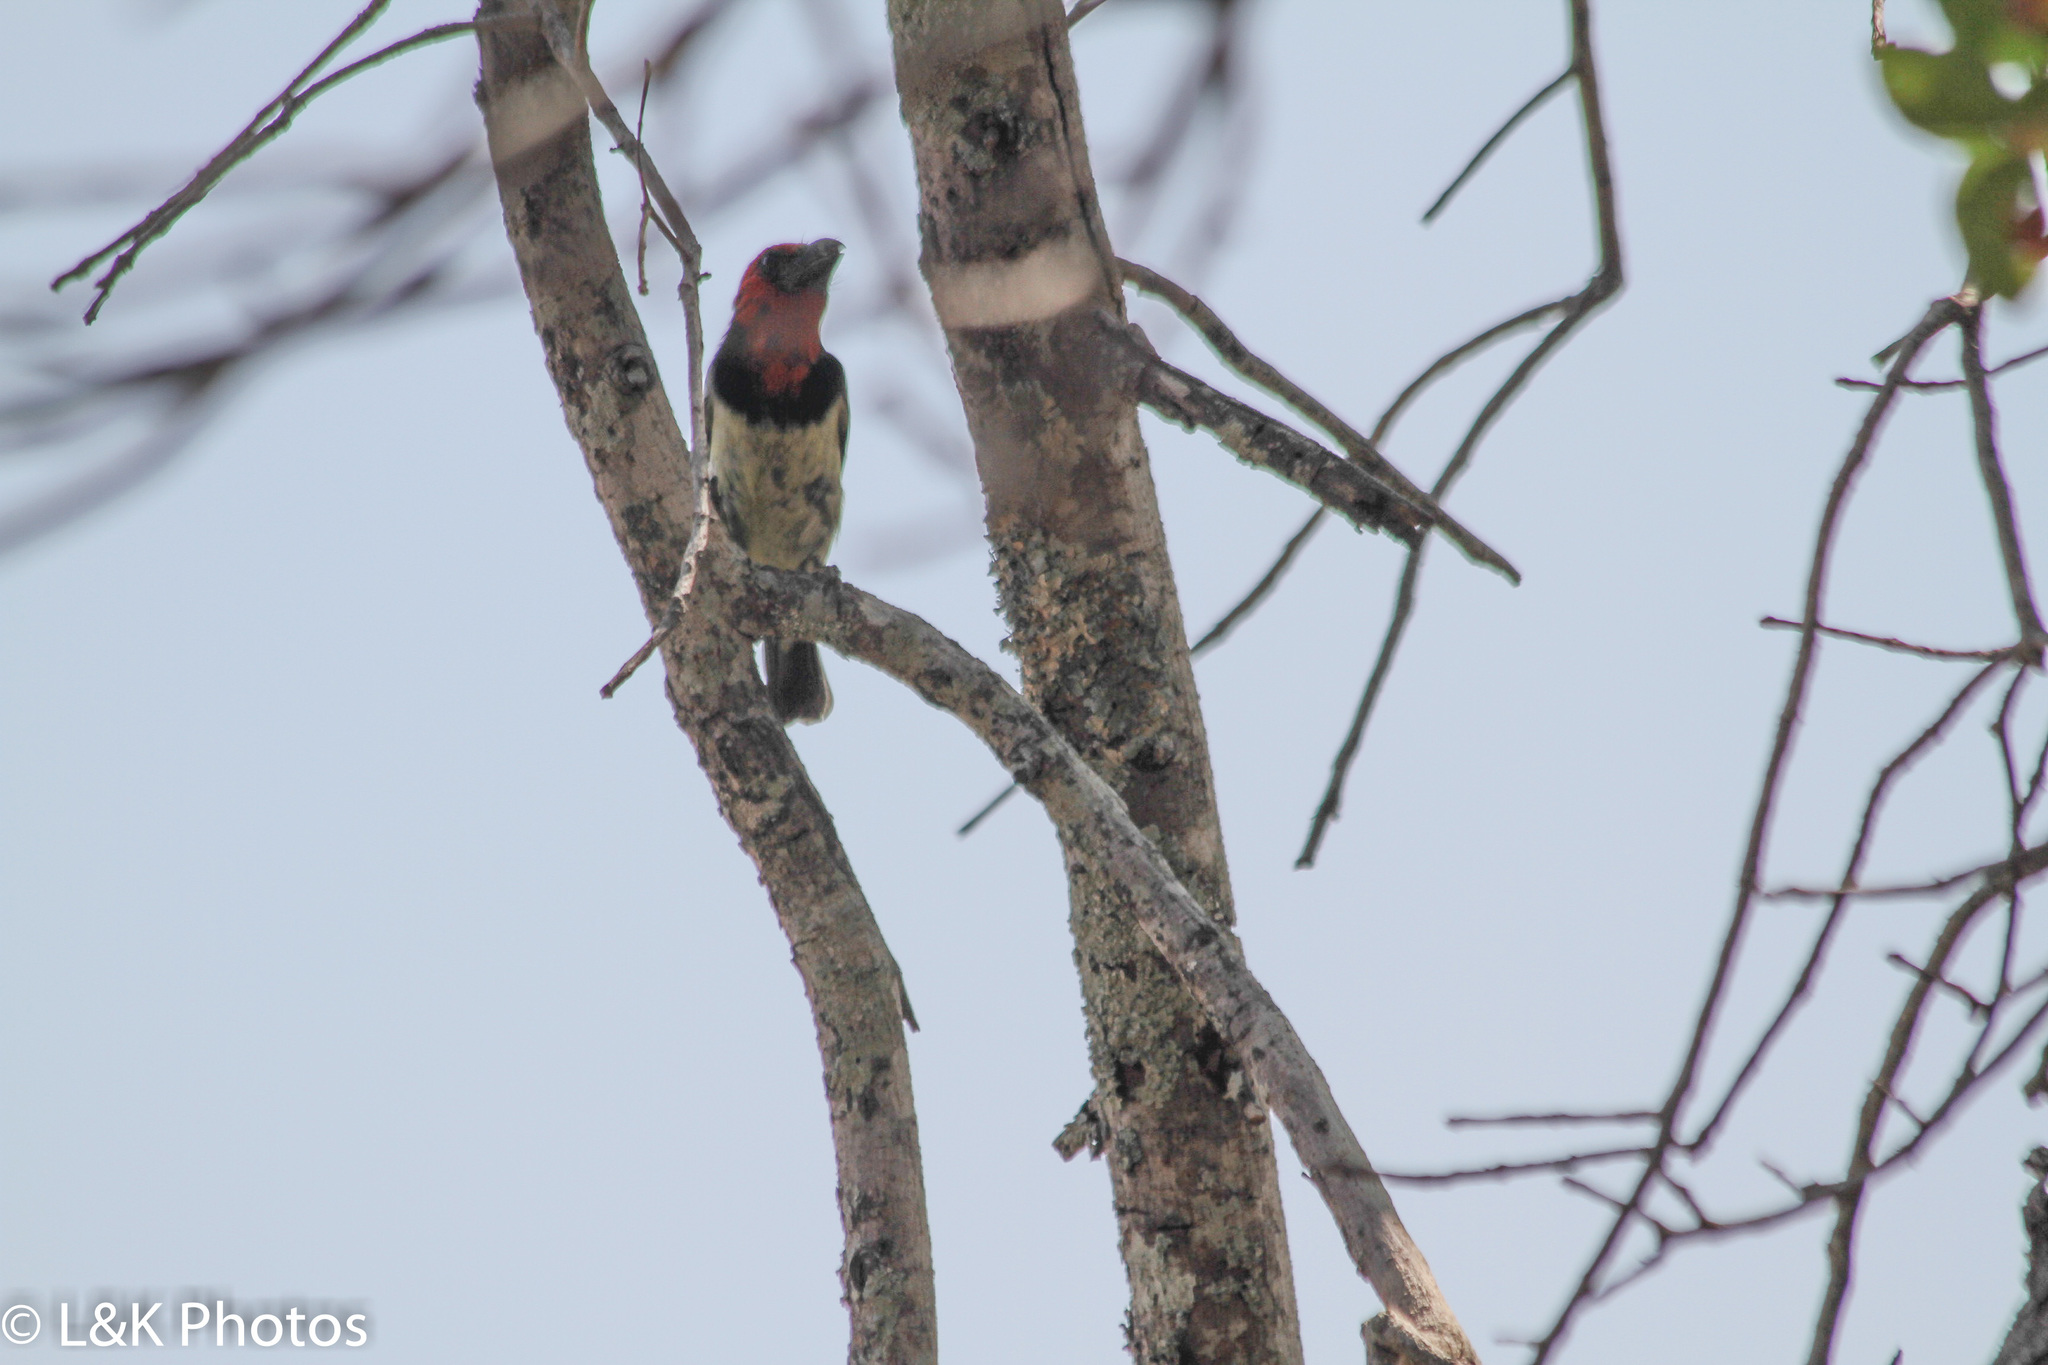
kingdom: Animalia
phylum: Chordata
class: Aves
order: Piciformes
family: Lybiidae
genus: Lybius
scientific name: Lybius torquatus
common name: Black-collared barbet
